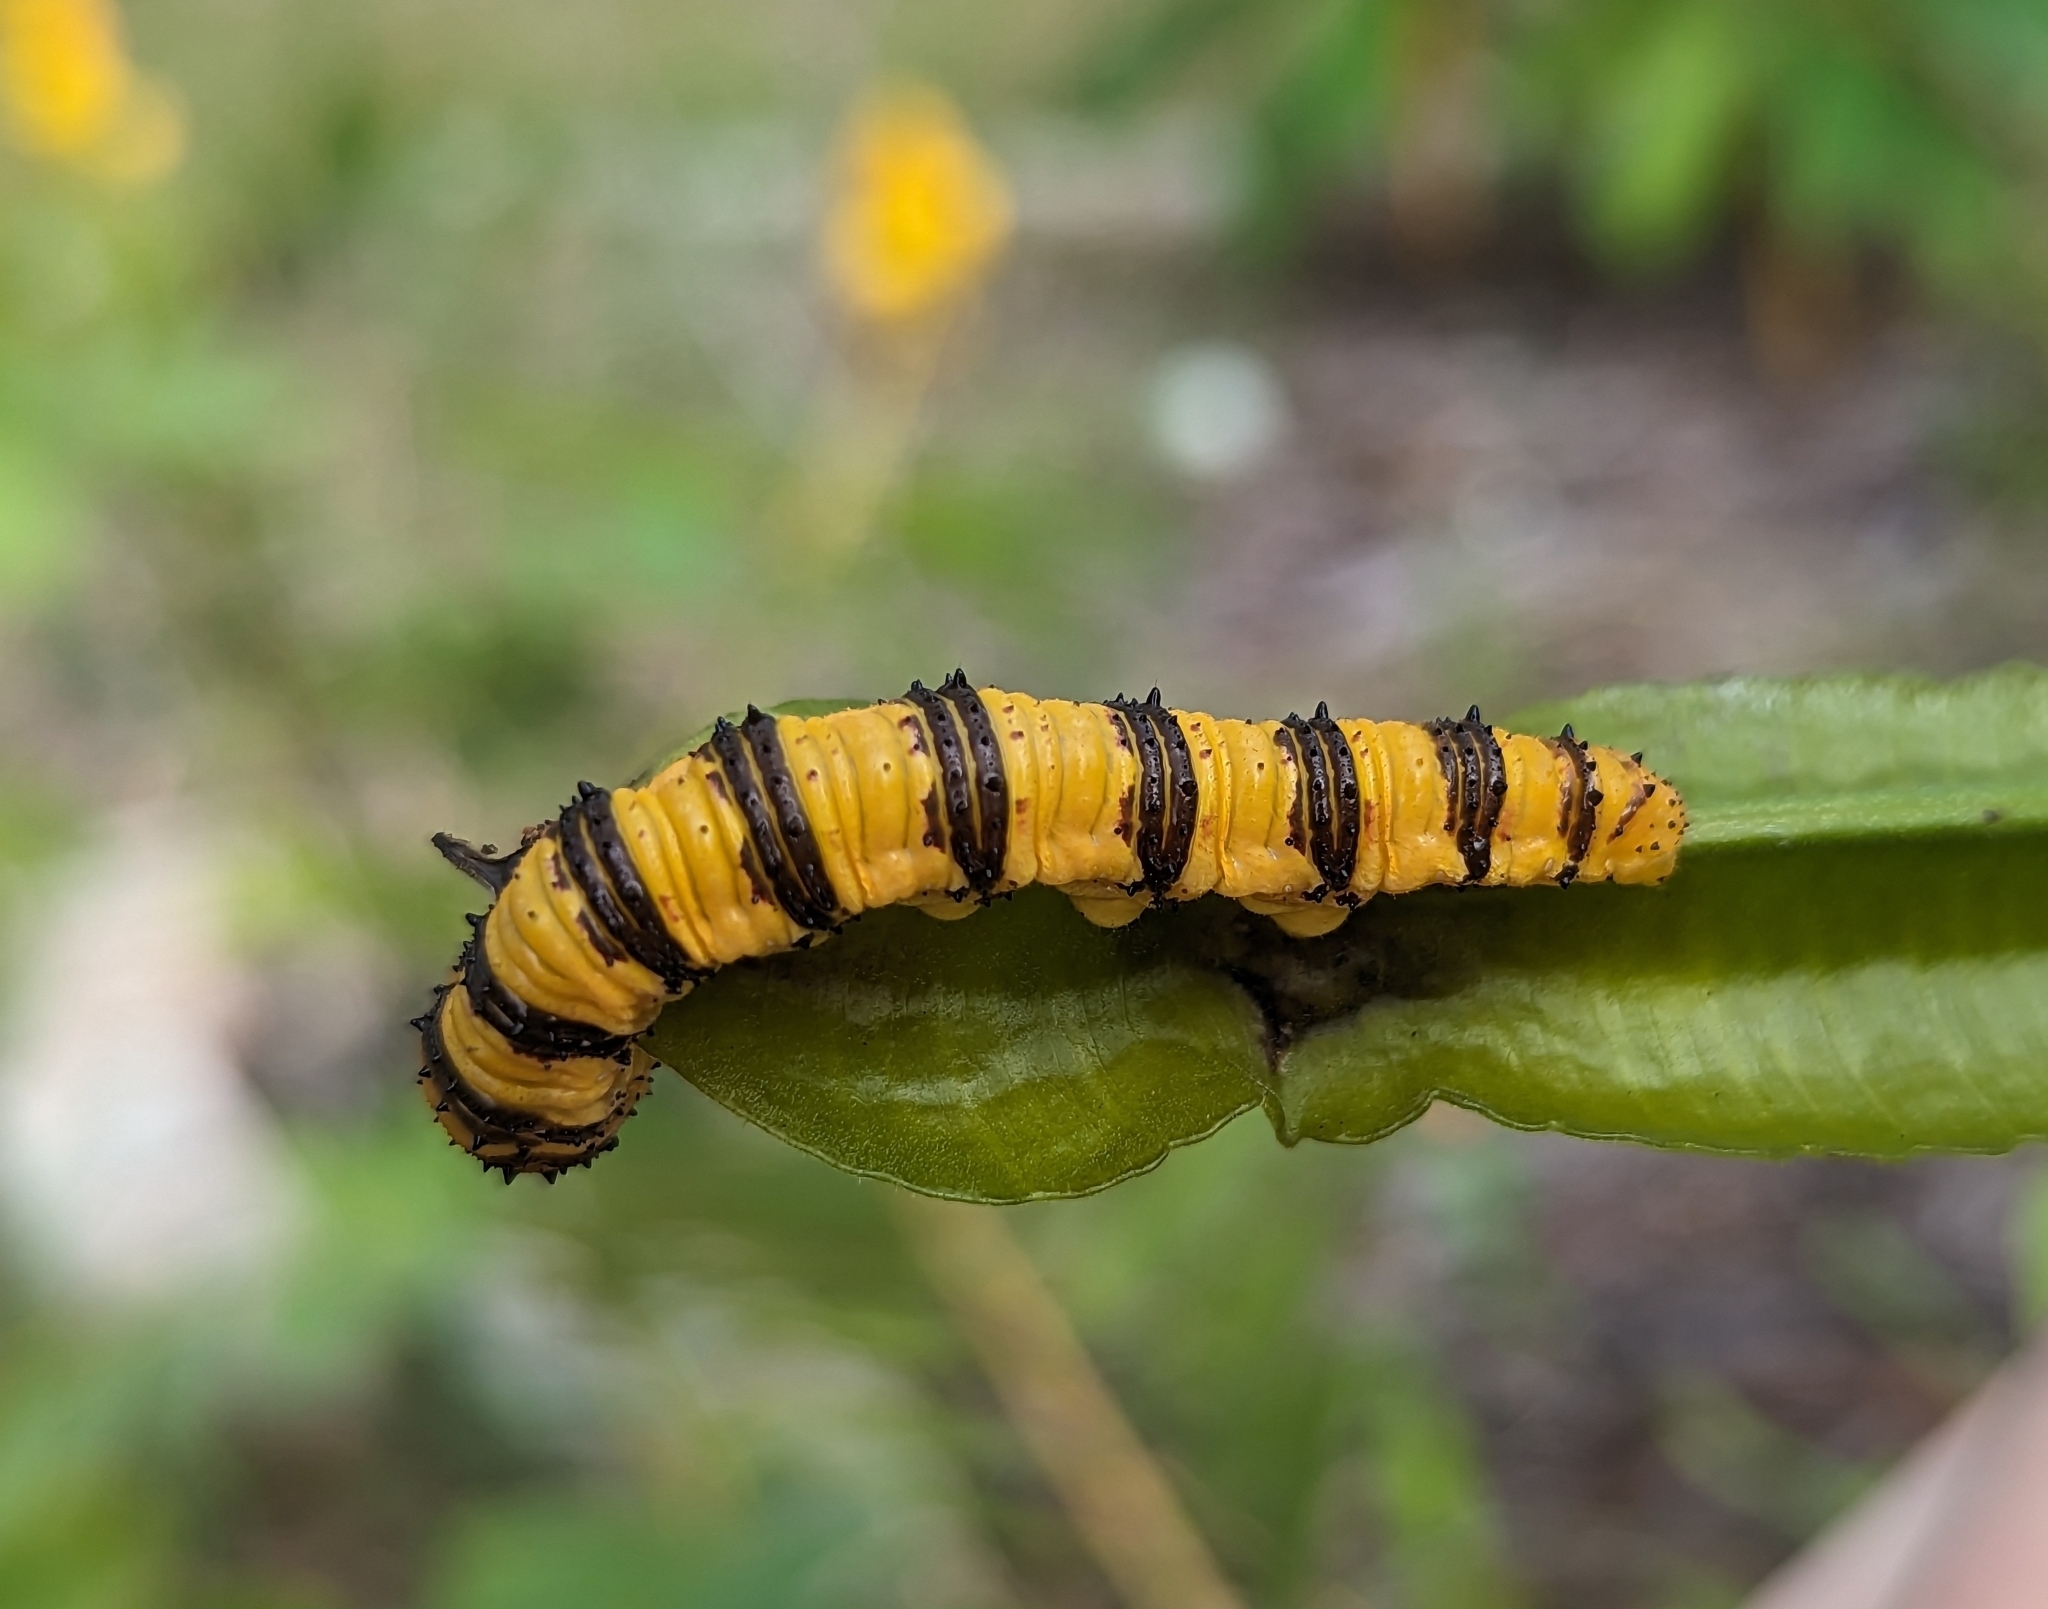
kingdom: Animalia
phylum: Arthropoda
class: Insecta
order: Lepidoptera
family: Pieridae
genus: Phoebis
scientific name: Phoebis philea
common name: Orange-barred giant sulphur
